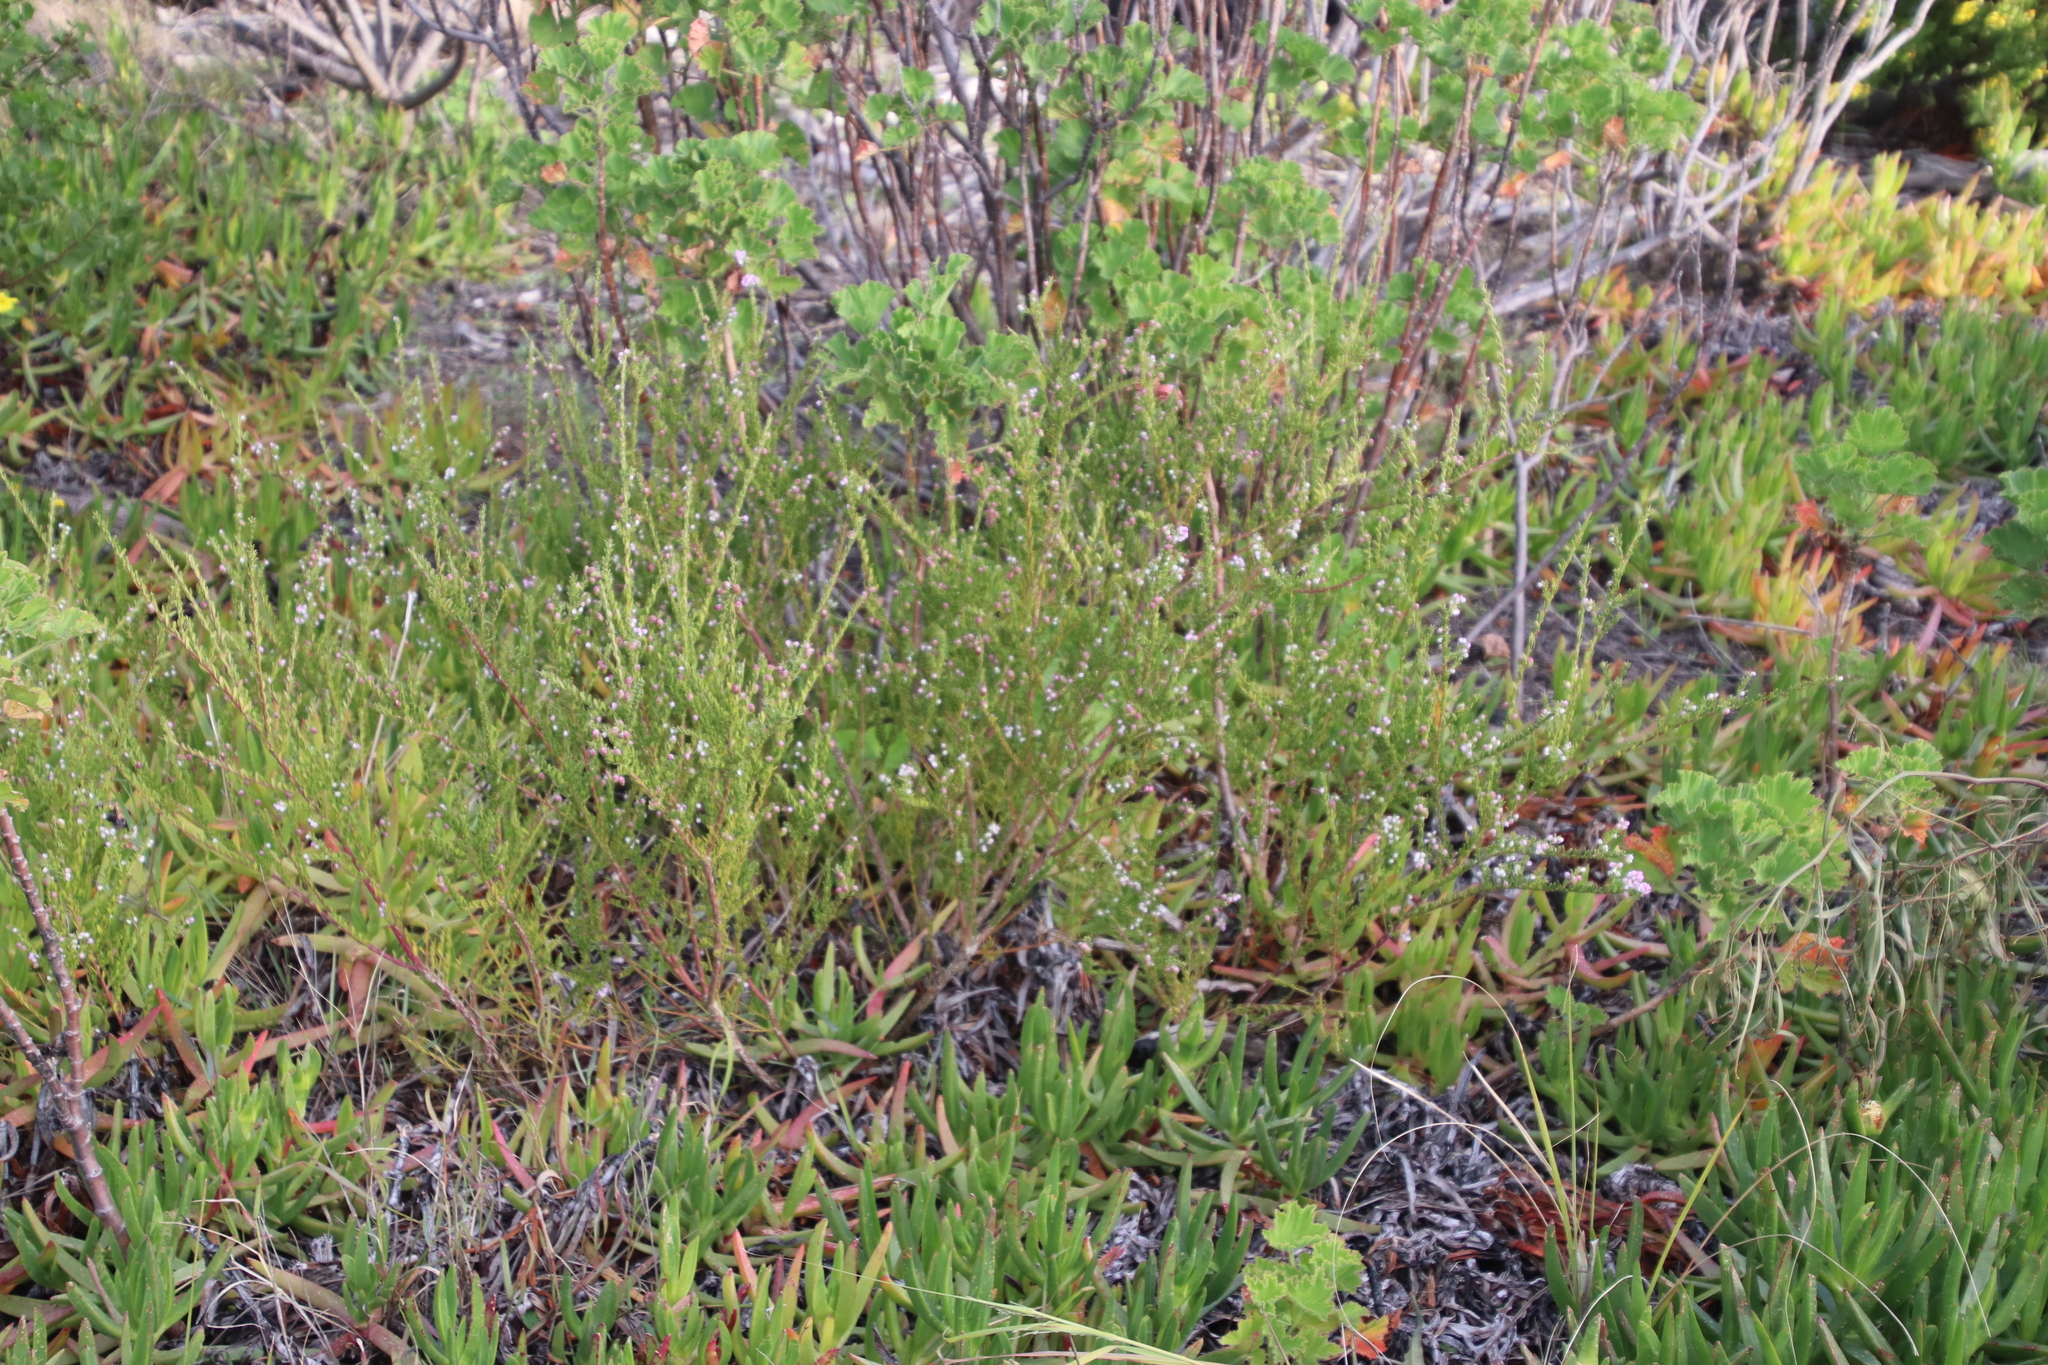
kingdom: Plantae
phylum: Tracheophyta
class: Magnoliopsida
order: Fabales
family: Polygalaceae
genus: Muraltia
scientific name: Muraltia spinosa
